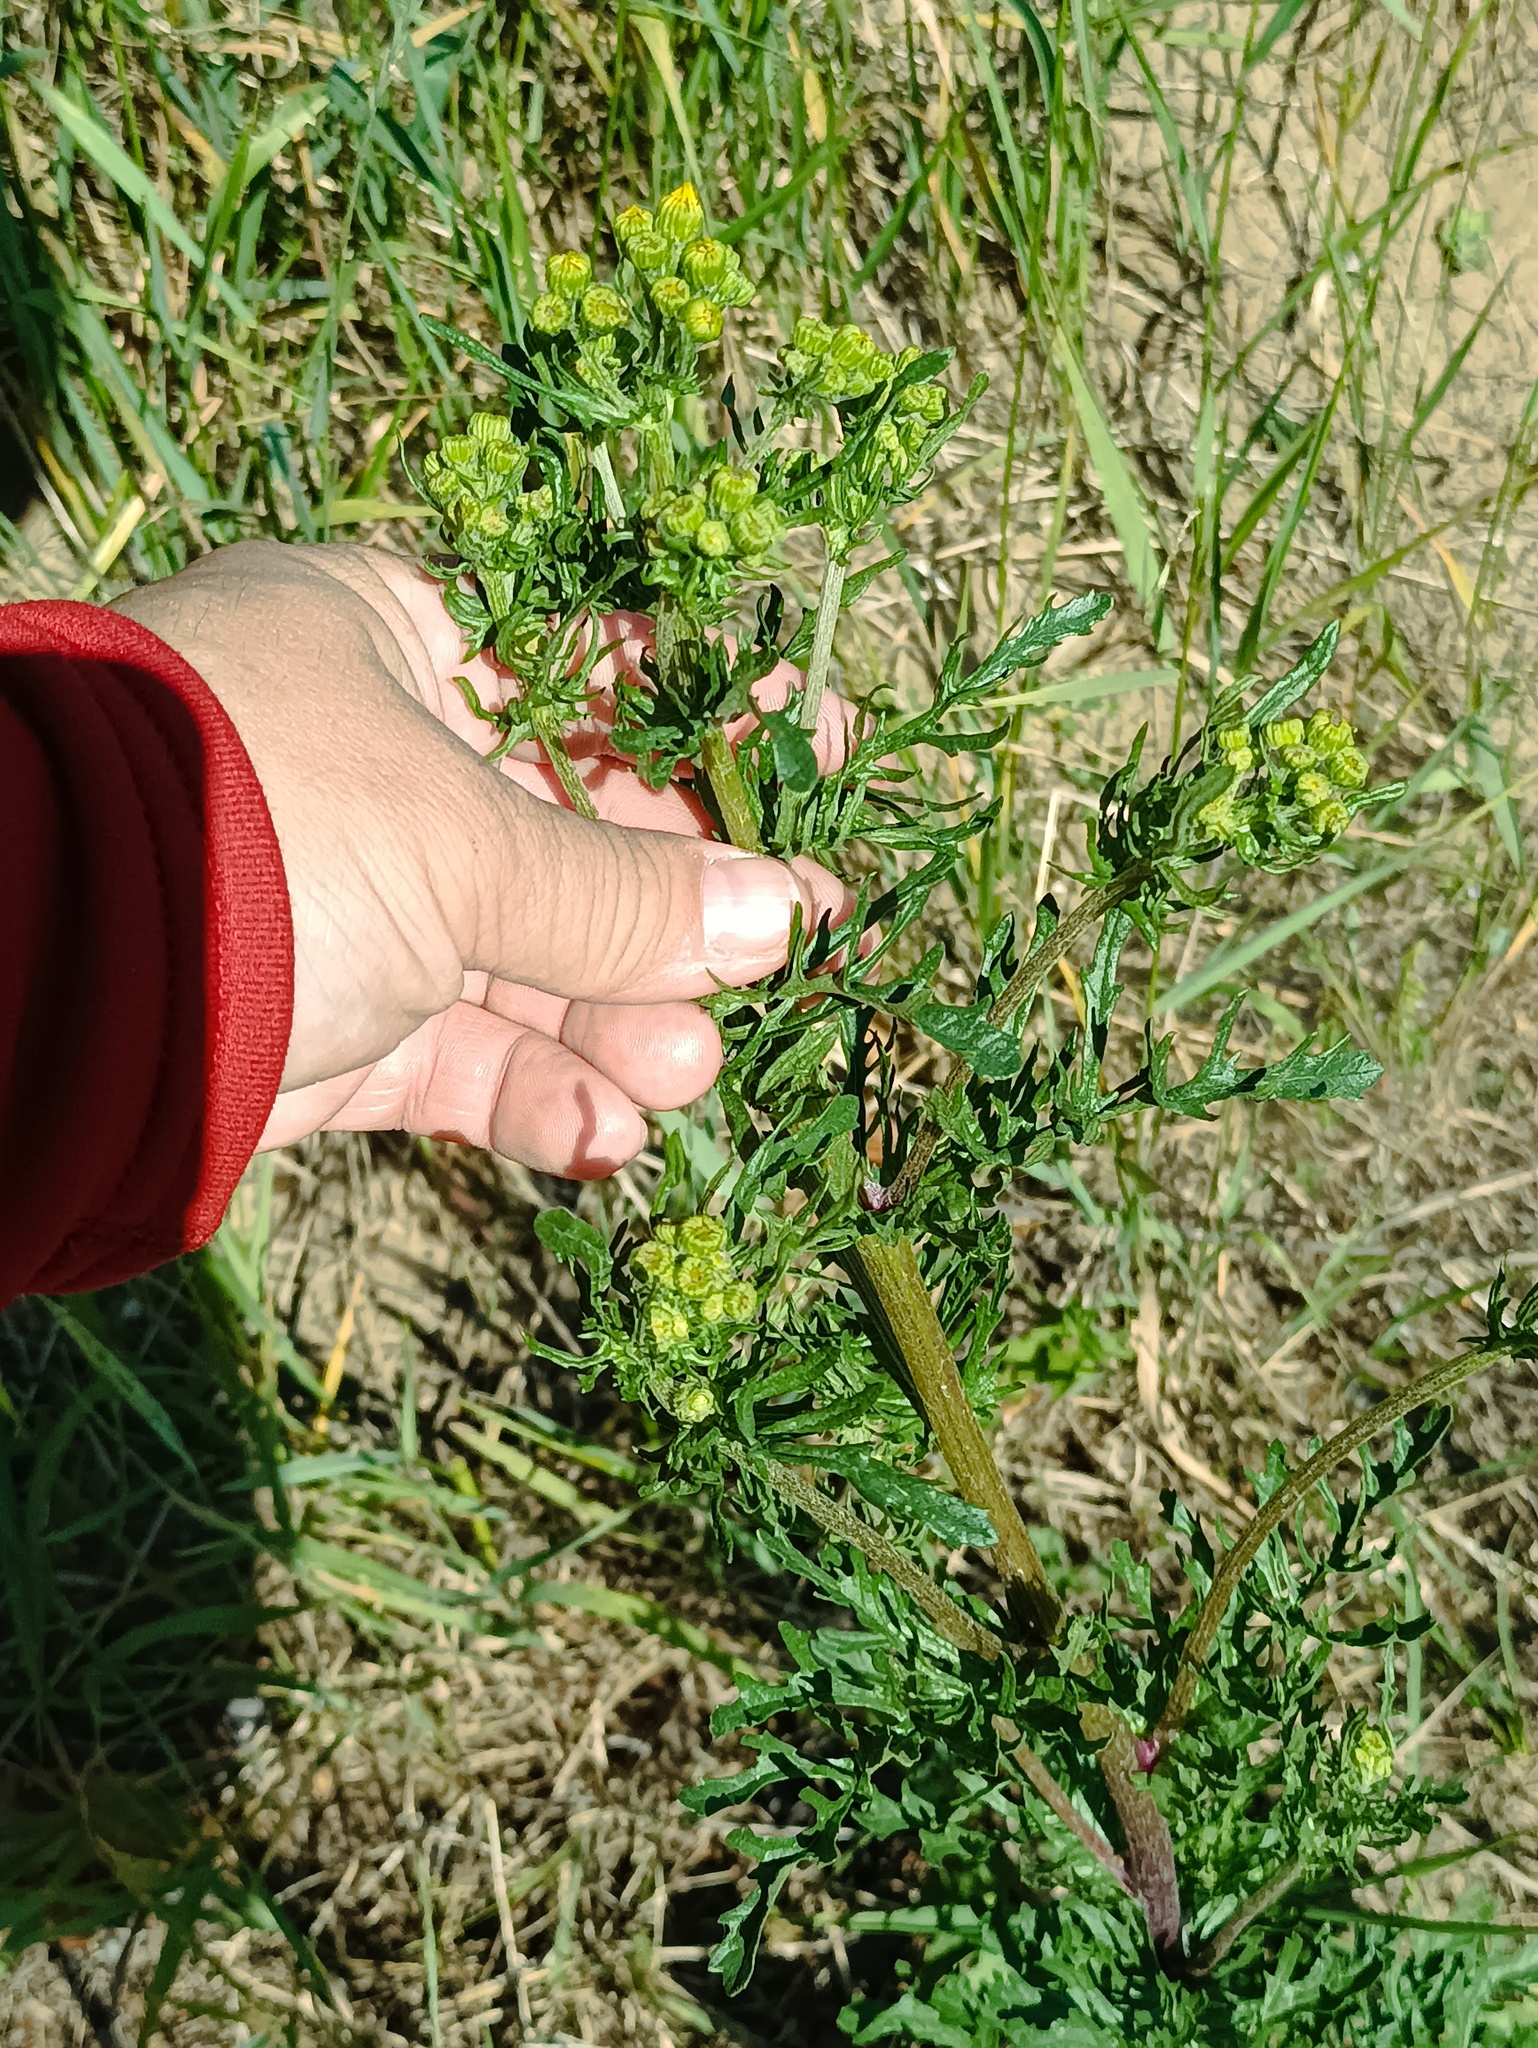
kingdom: Plantae
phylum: Tracheophyta
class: Magnoliopsida
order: Asterales
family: Asteraceae
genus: Jacobaea
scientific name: Jacobaea vulgaris
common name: Stinking willie
